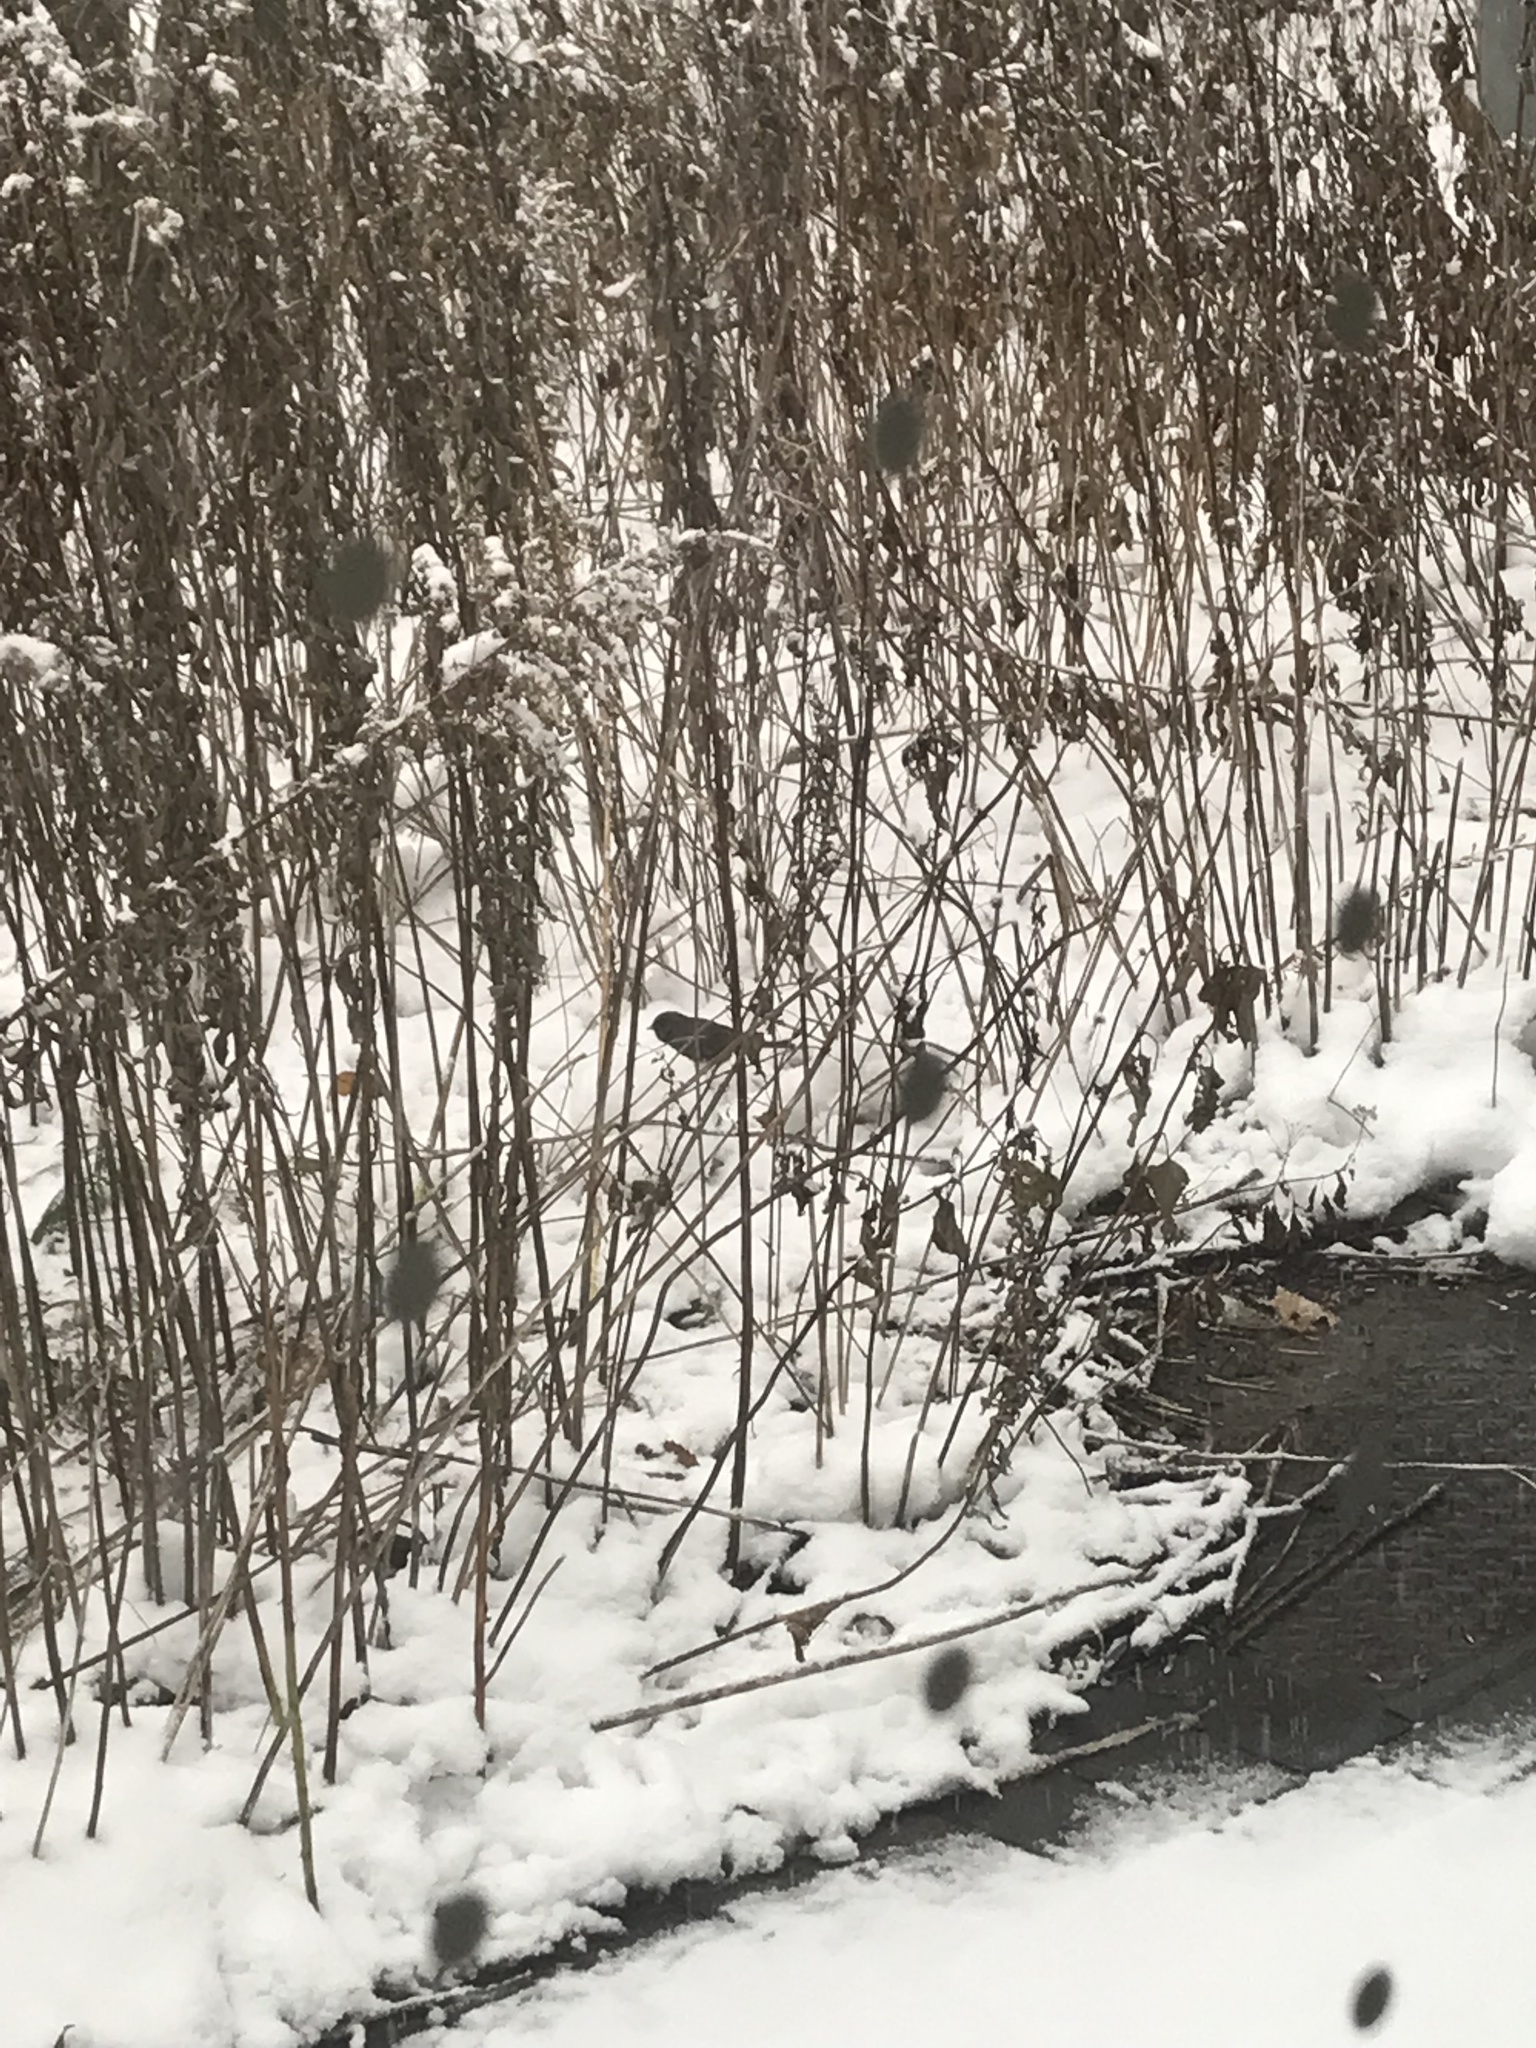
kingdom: Animalia
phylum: Chordata
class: Aves
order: Passeriformes
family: Passerellidae
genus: Junco
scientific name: Junco hyemalis
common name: Dark-eyed junco
